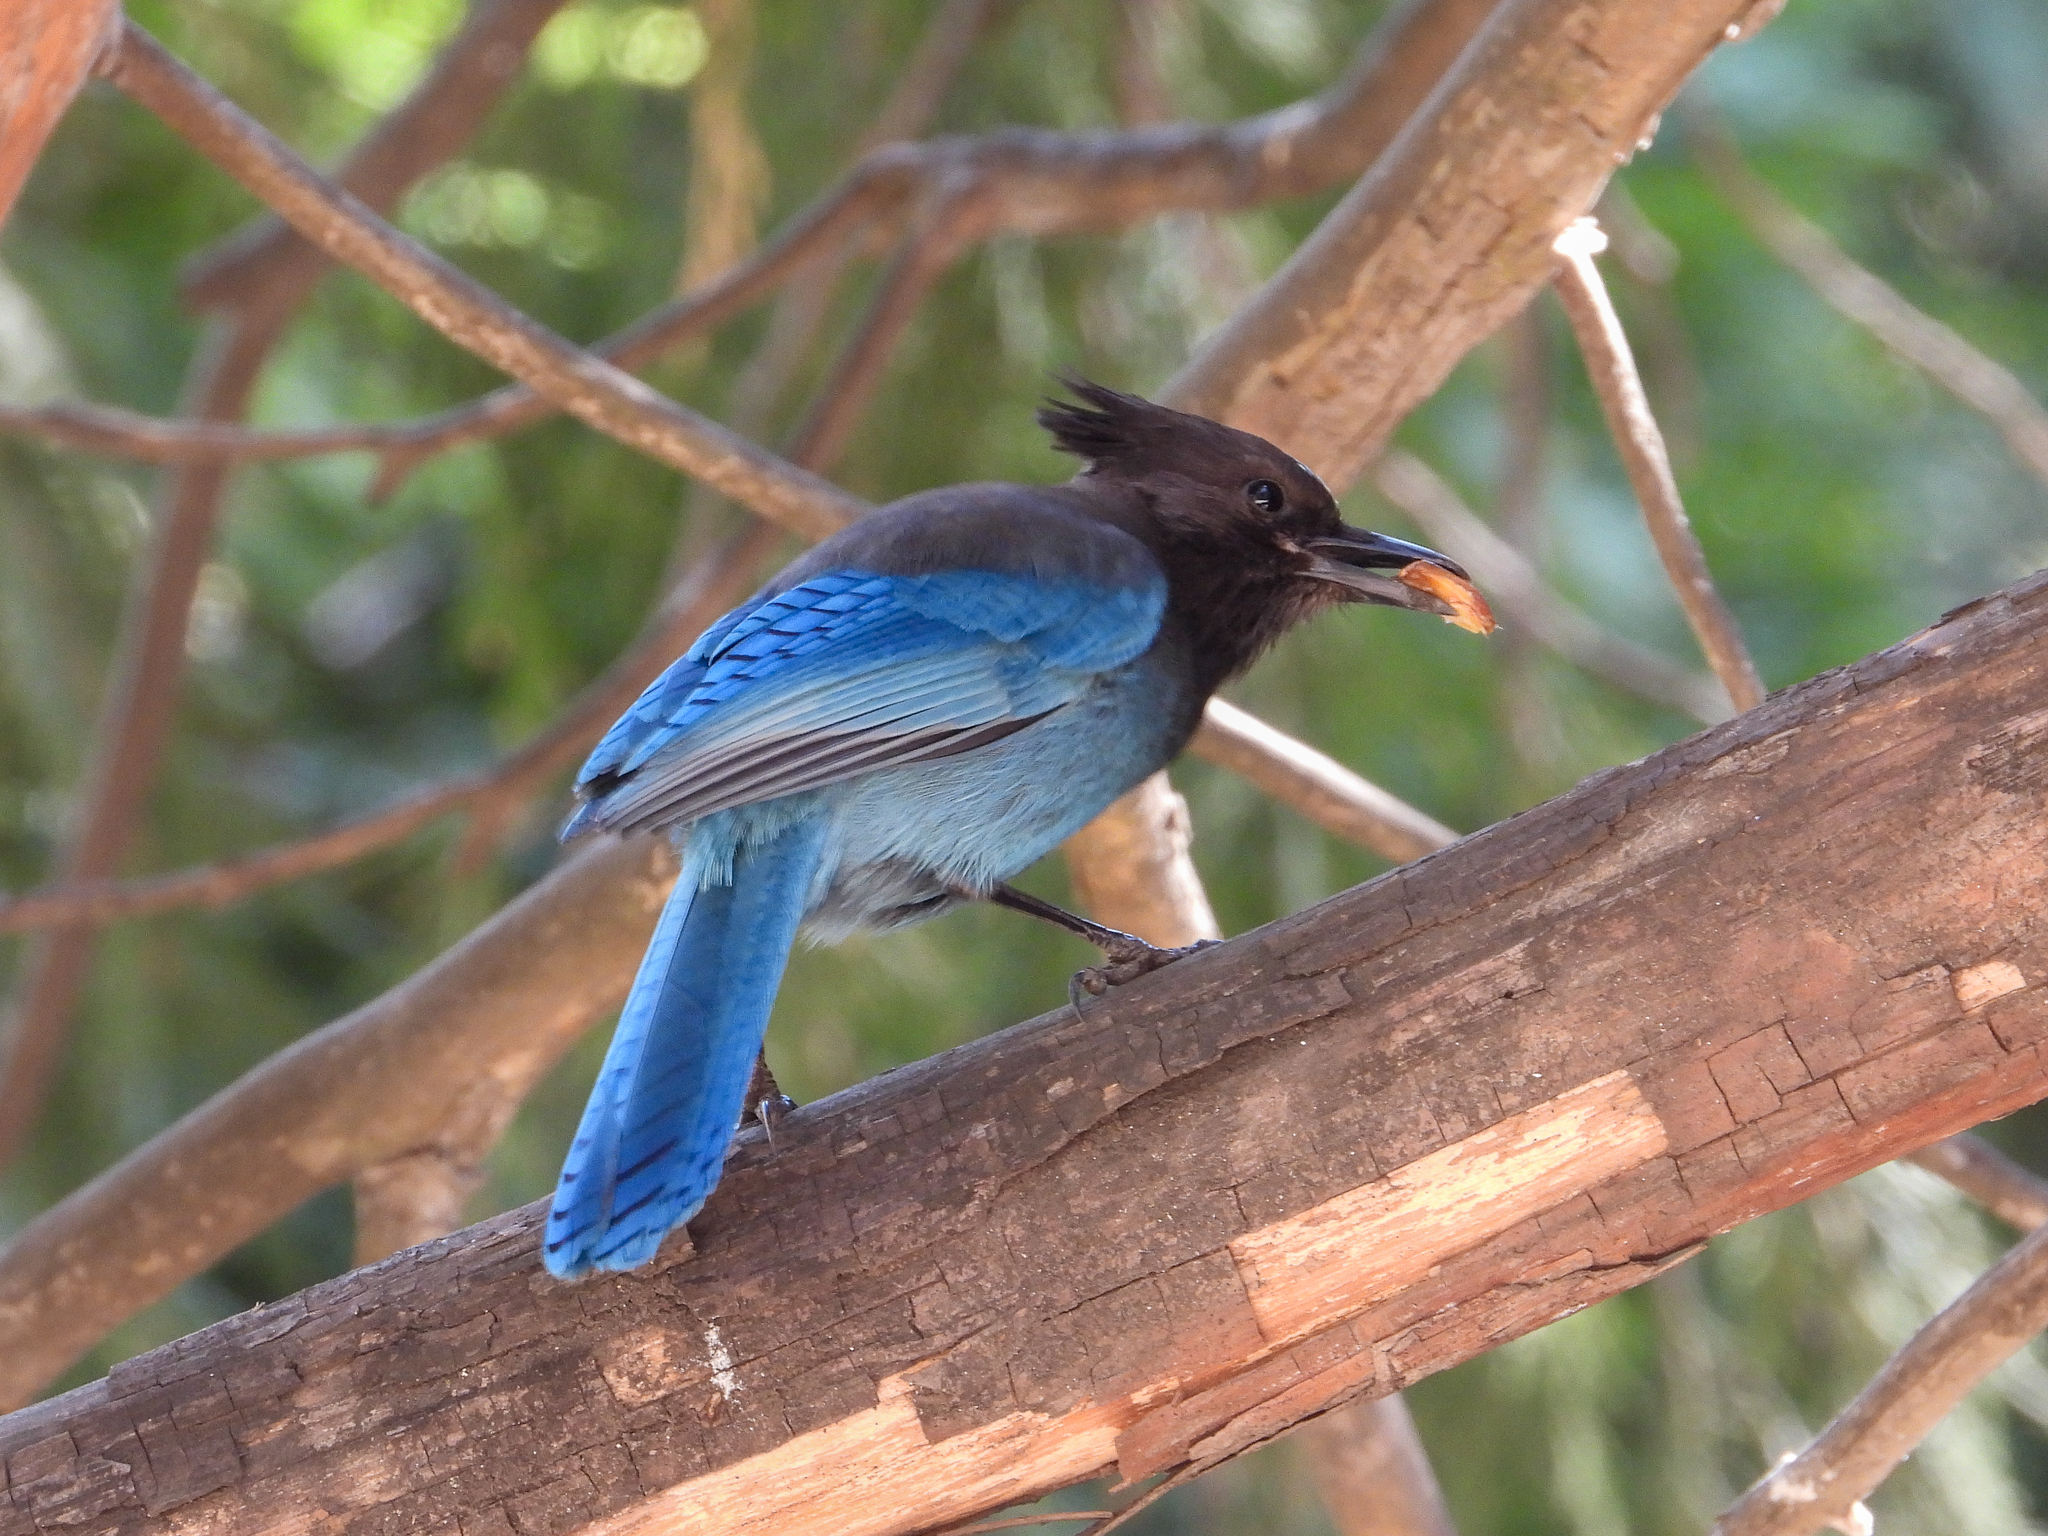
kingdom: Animalia
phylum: Chordata
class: Aves
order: Passeriformes
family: Corvidae
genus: Cyanocitta
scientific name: Cyanocitta stelleri
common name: Steller's jay
